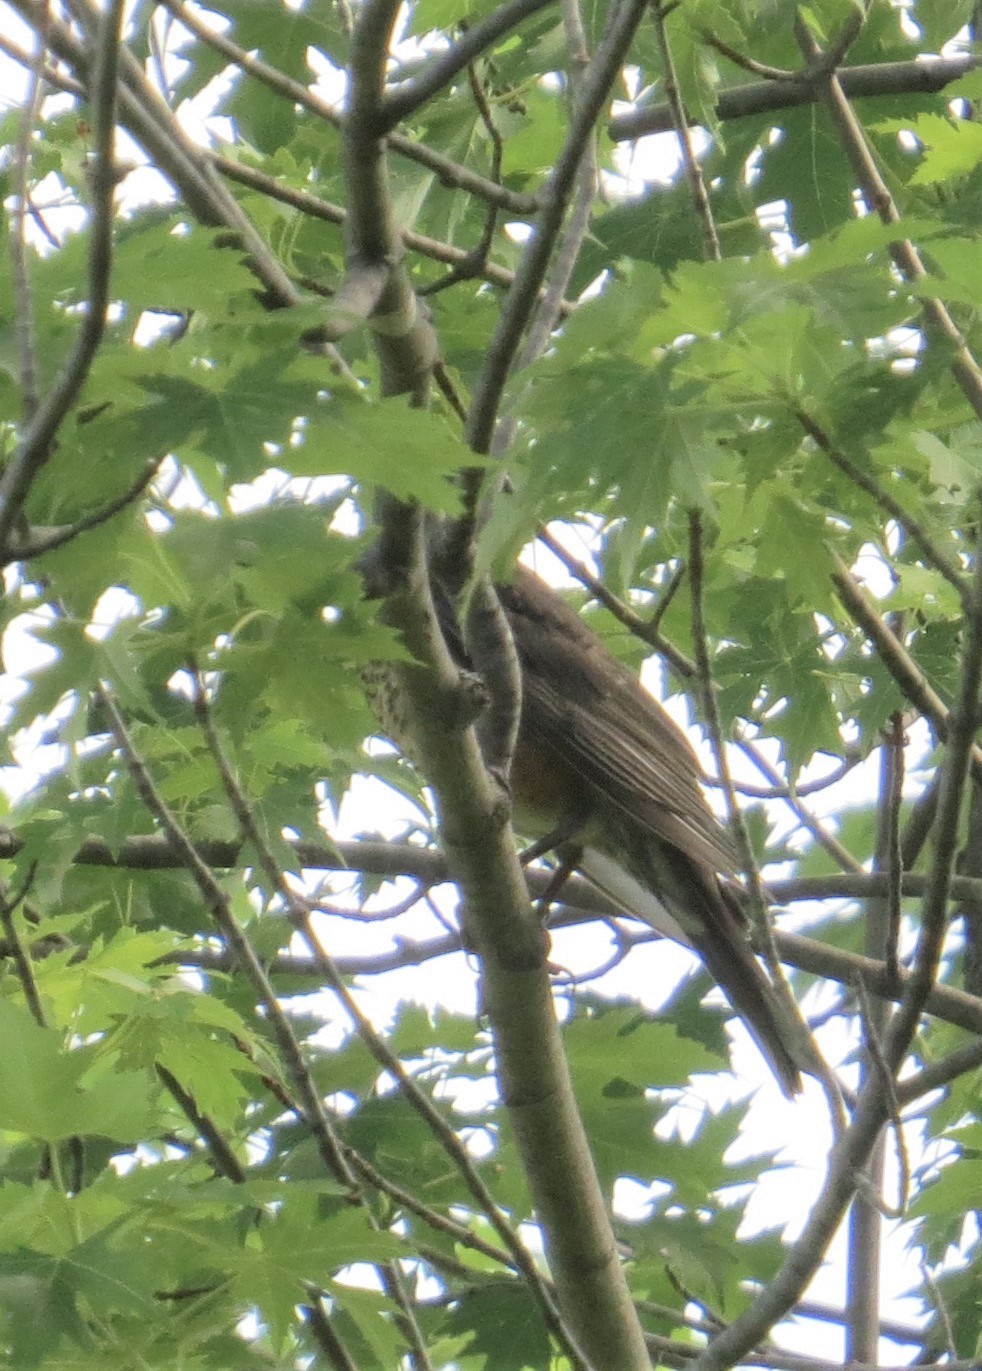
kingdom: Animalia
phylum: Chordata
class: Aves
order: Passeriformes
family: Turdidae
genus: Turdus
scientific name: Turdus migratorius
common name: American robin
